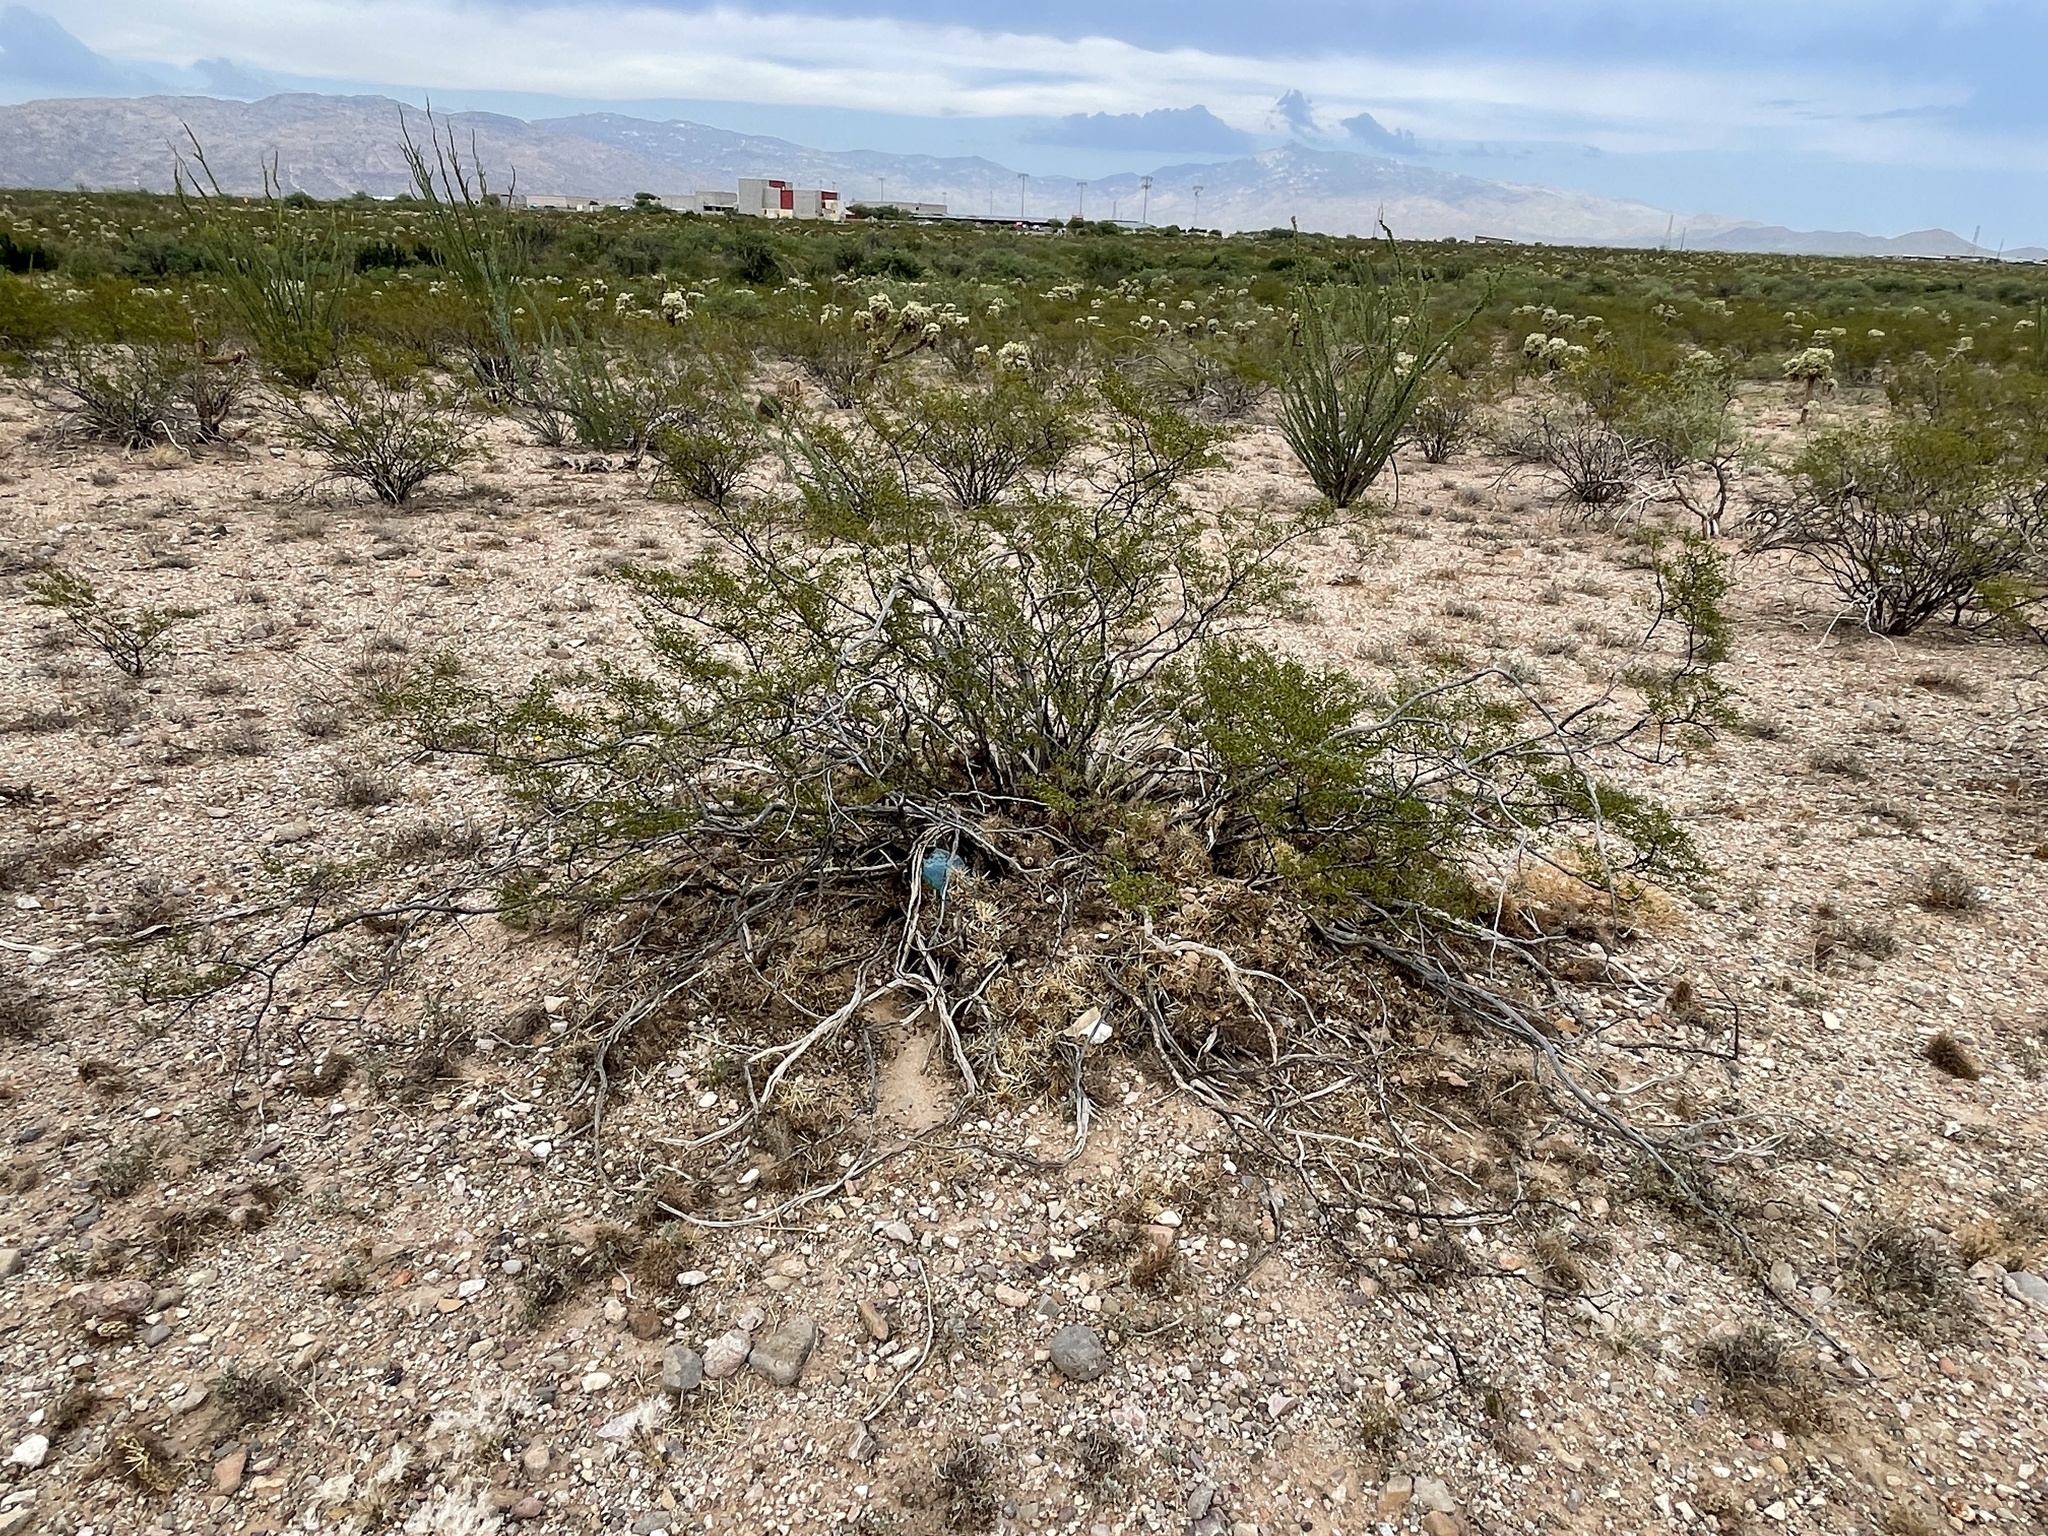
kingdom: Plantae
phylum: Tracheophyta
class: Magnoliopsida
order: Zygophyllales
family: Zygophyllaceae
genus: Larrea
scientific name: Larrea tridentata
